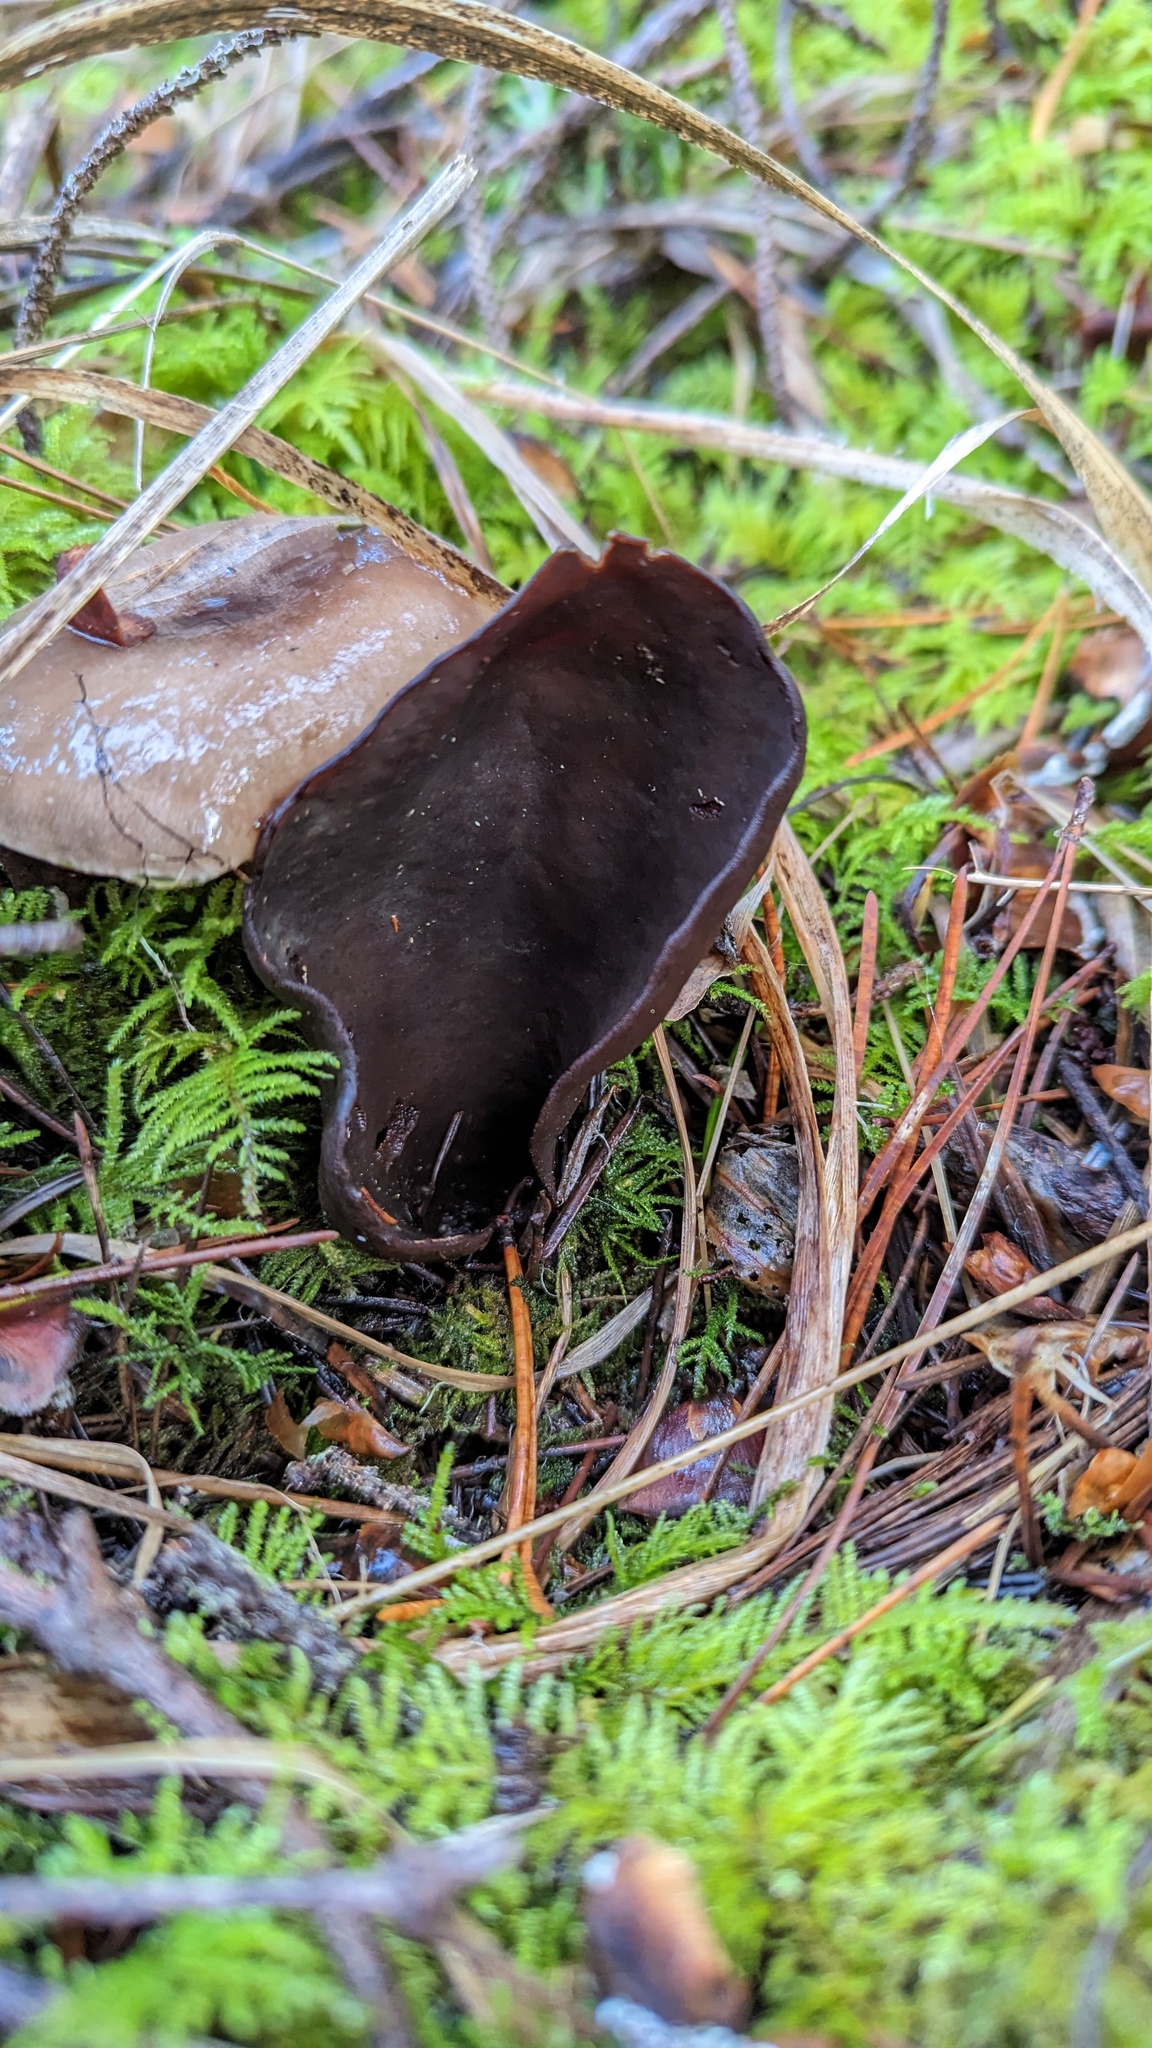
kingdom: Fungi
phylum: Ascomycota
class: Pezizomycetes
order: Pezizales
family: Otideaceae
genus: Otidea
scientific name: Otidea smithii
